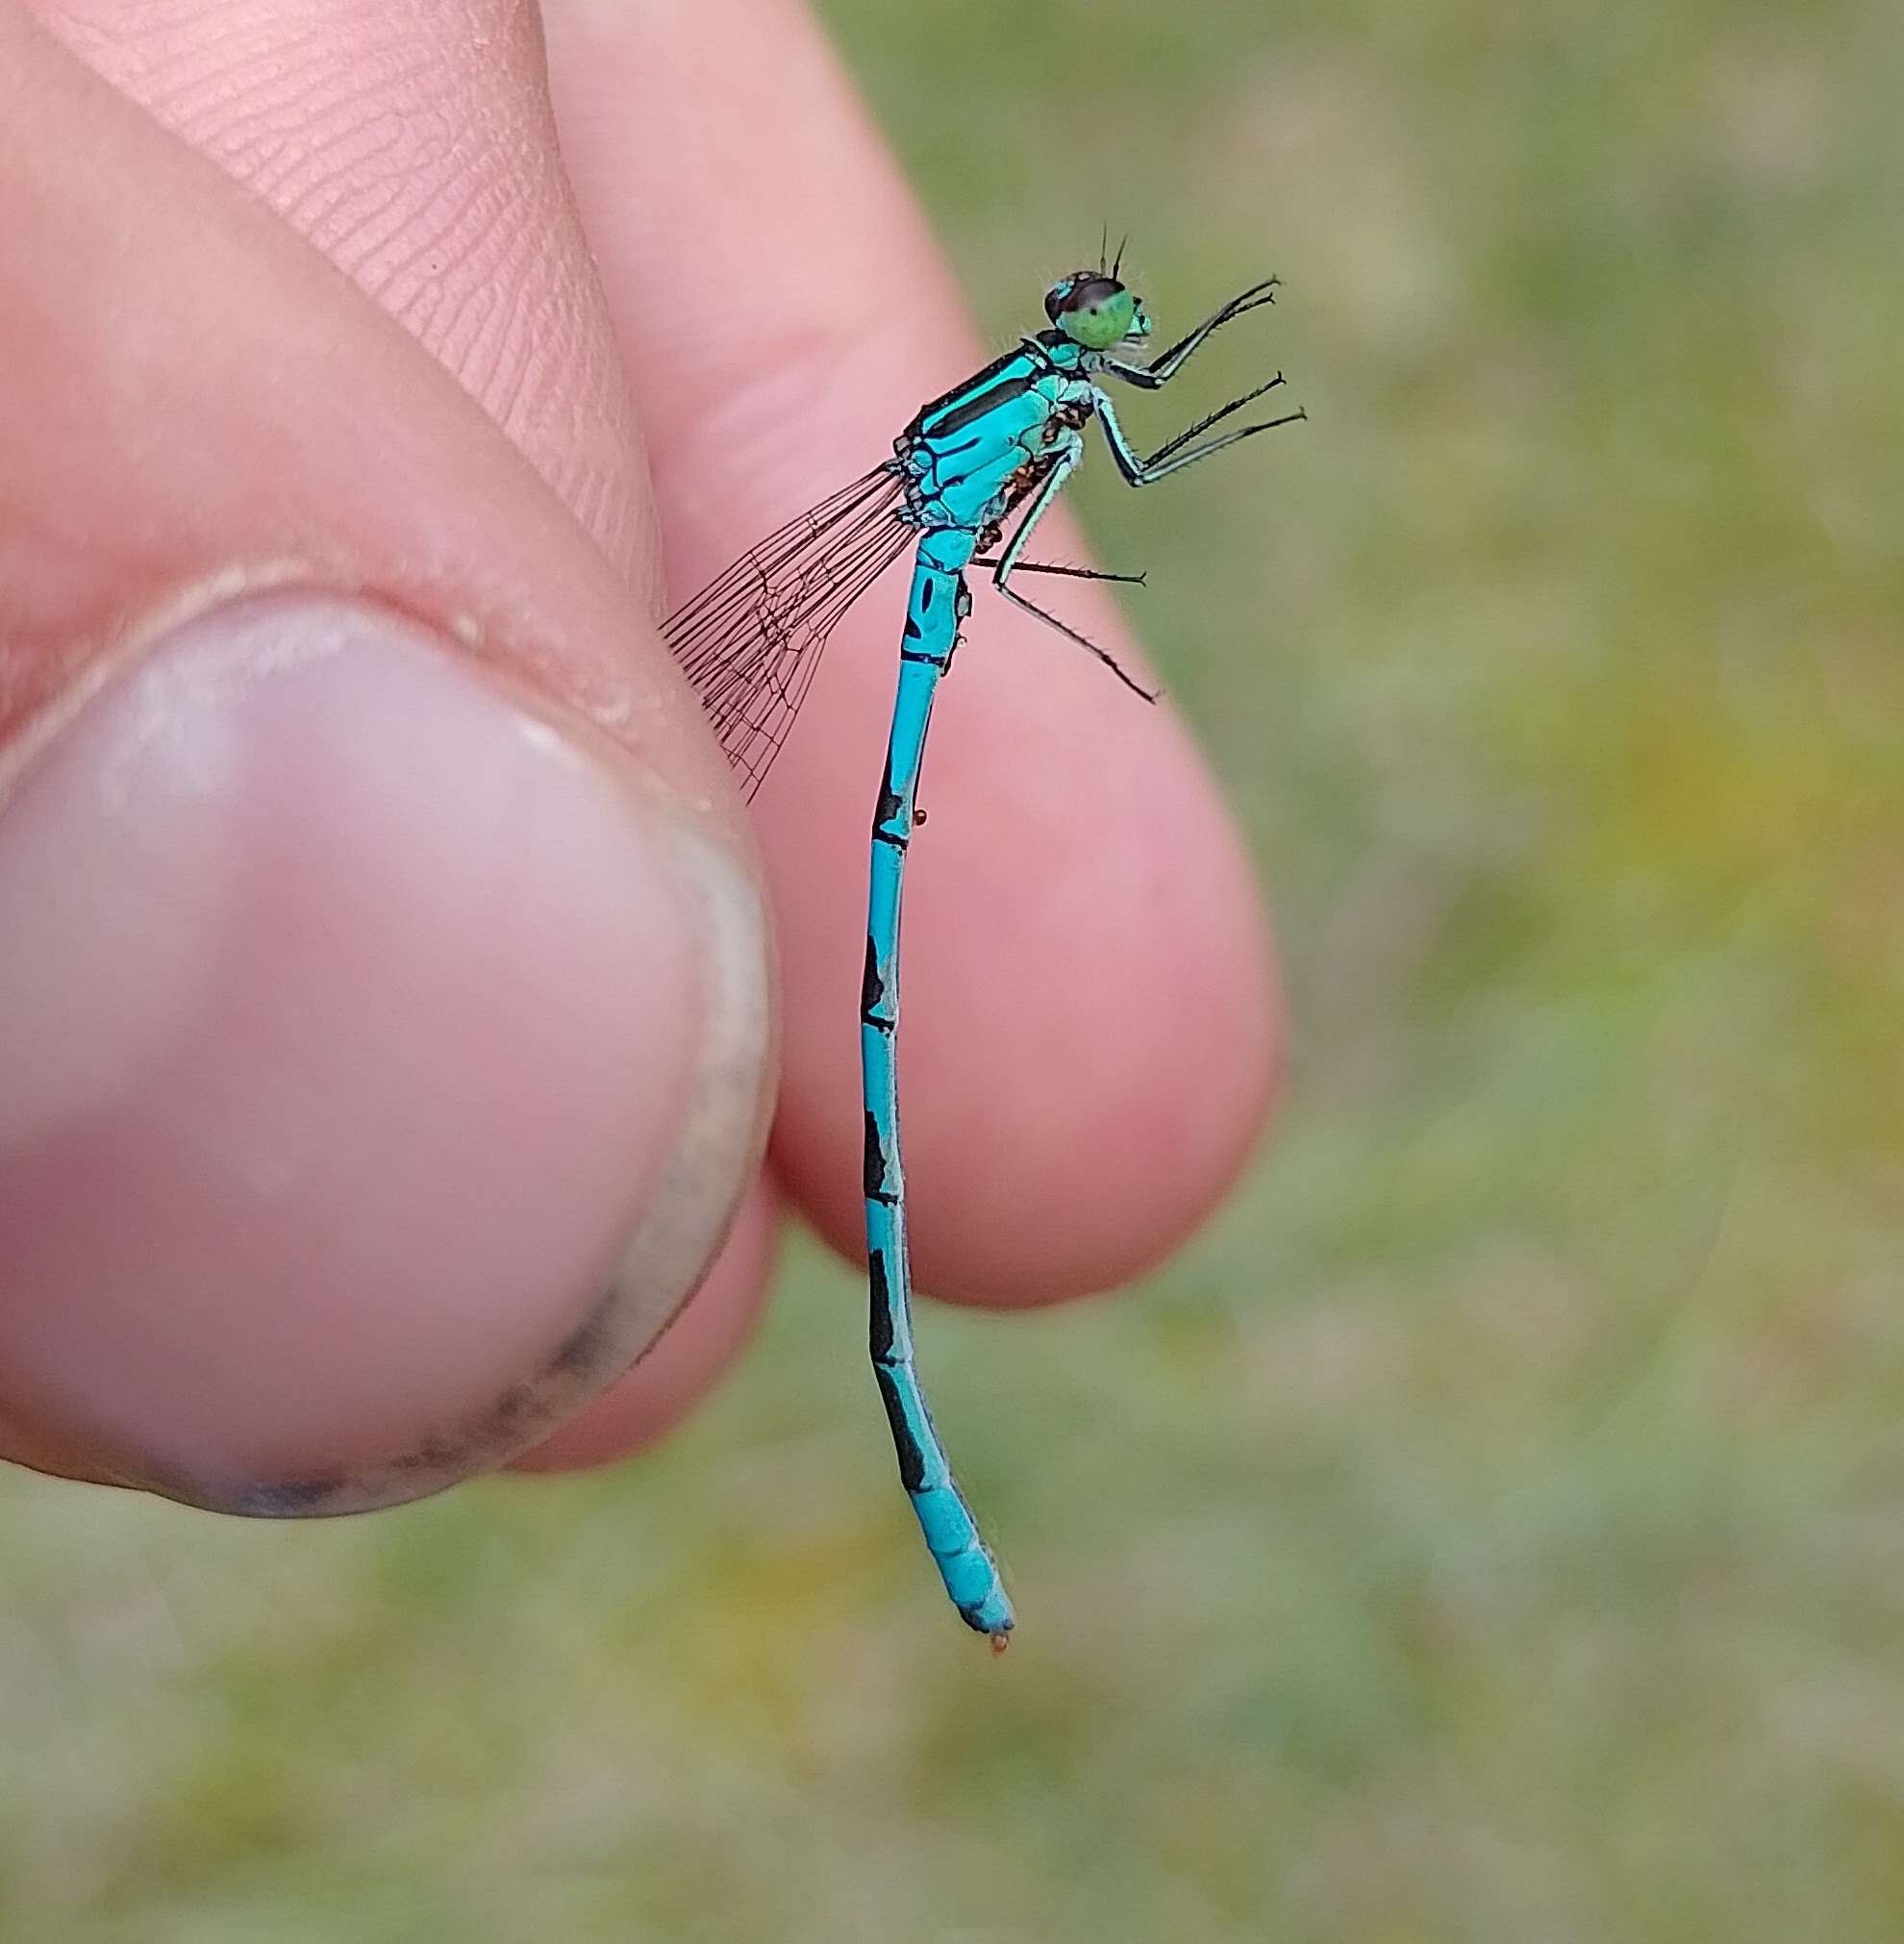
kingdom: Animalia
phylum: Arthropoda
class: Insecta
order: Odonata
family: Coenagrionidae
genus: Coenagrion
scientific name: Coenagrion hastulatum
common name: Spearhead bluet
